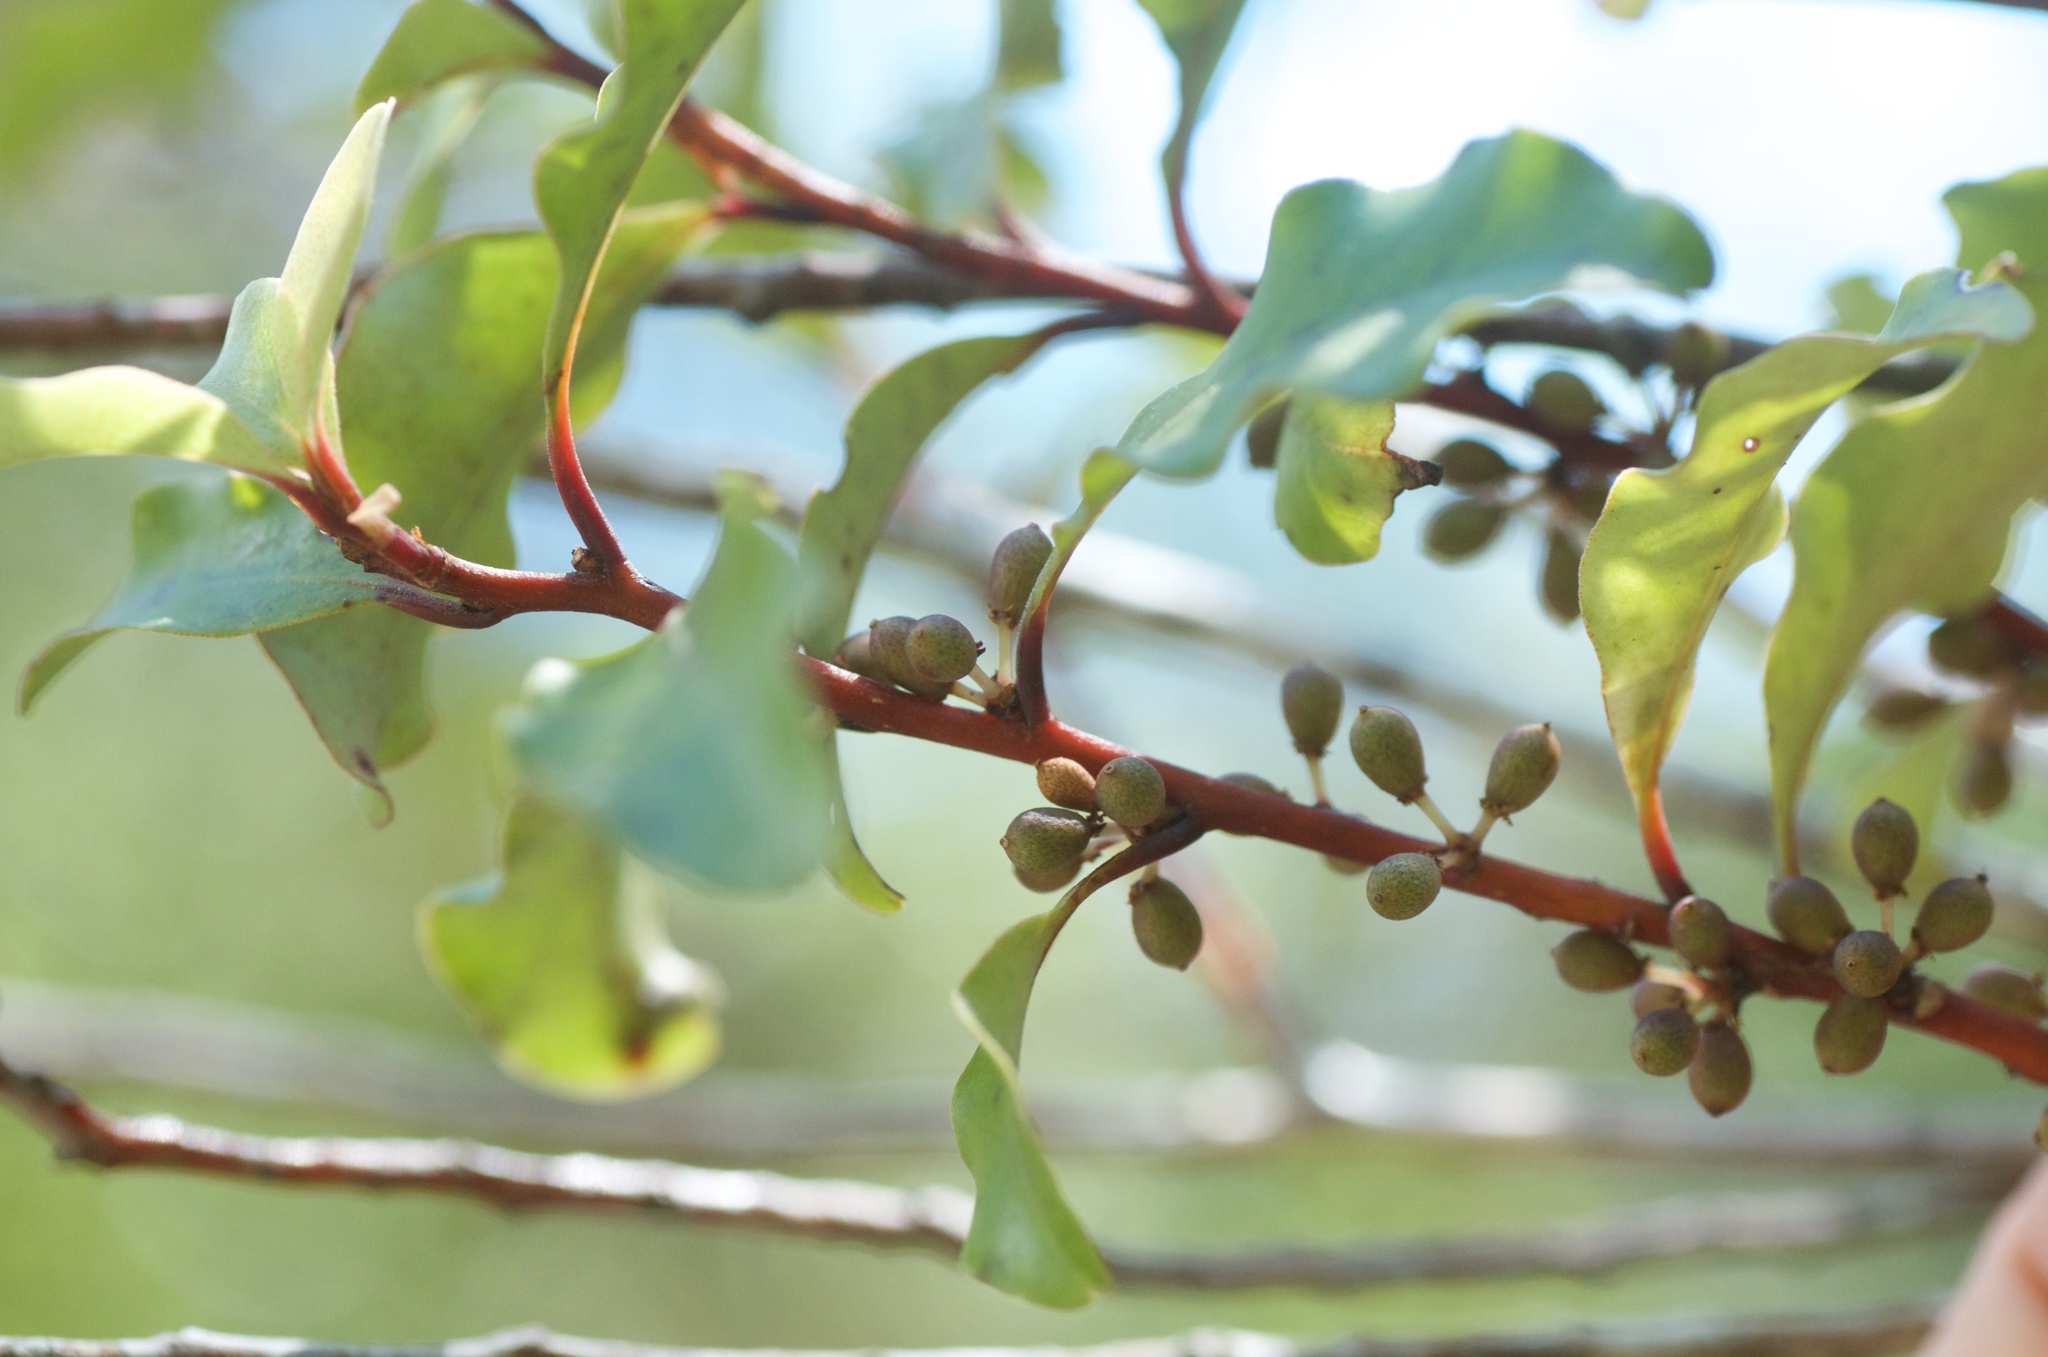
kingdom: Plantae
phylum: Tracheophyta
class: Magnoliopsida
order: Ericales
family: Primulaceae
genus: Myrsine
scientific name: Myrsine australis
